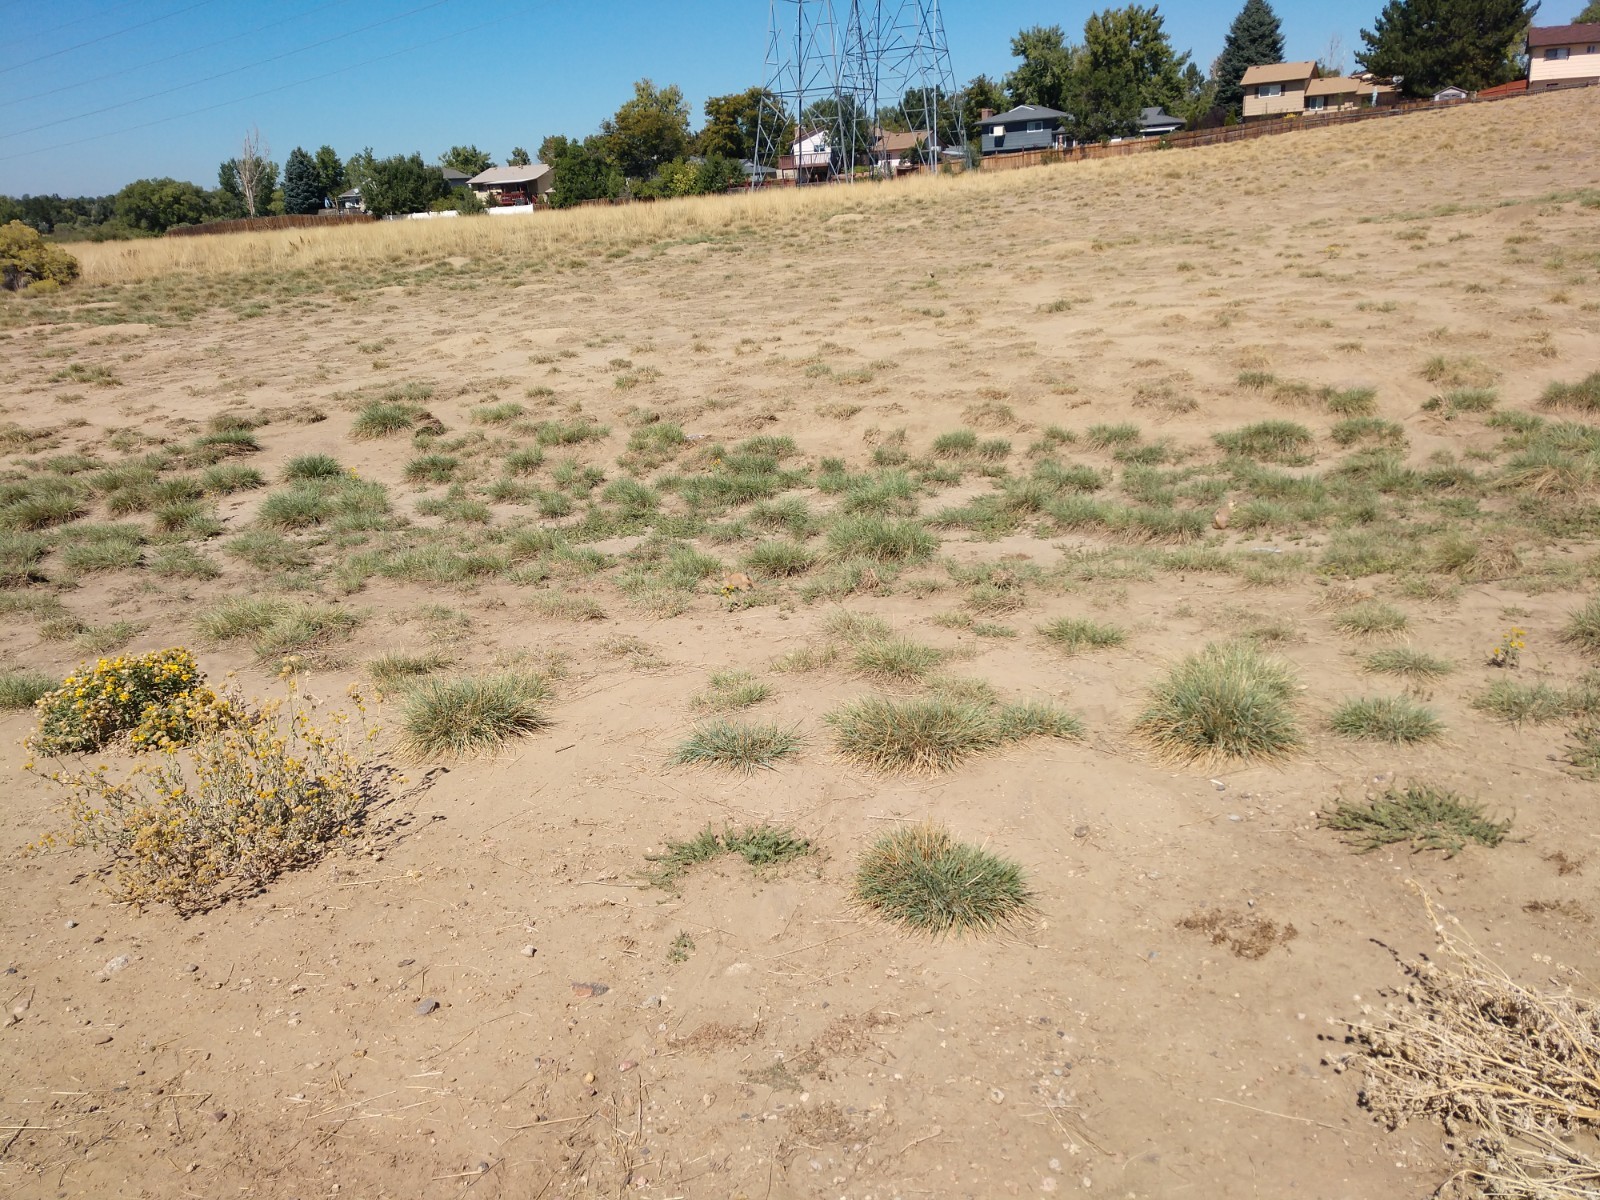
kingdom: Animalia
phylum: Chordata
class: Mammalia
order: Rodentia
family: Sciuridae
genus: Cynomys
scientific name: Cynomys ludovicianus
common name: Black-tailed prairie dog
